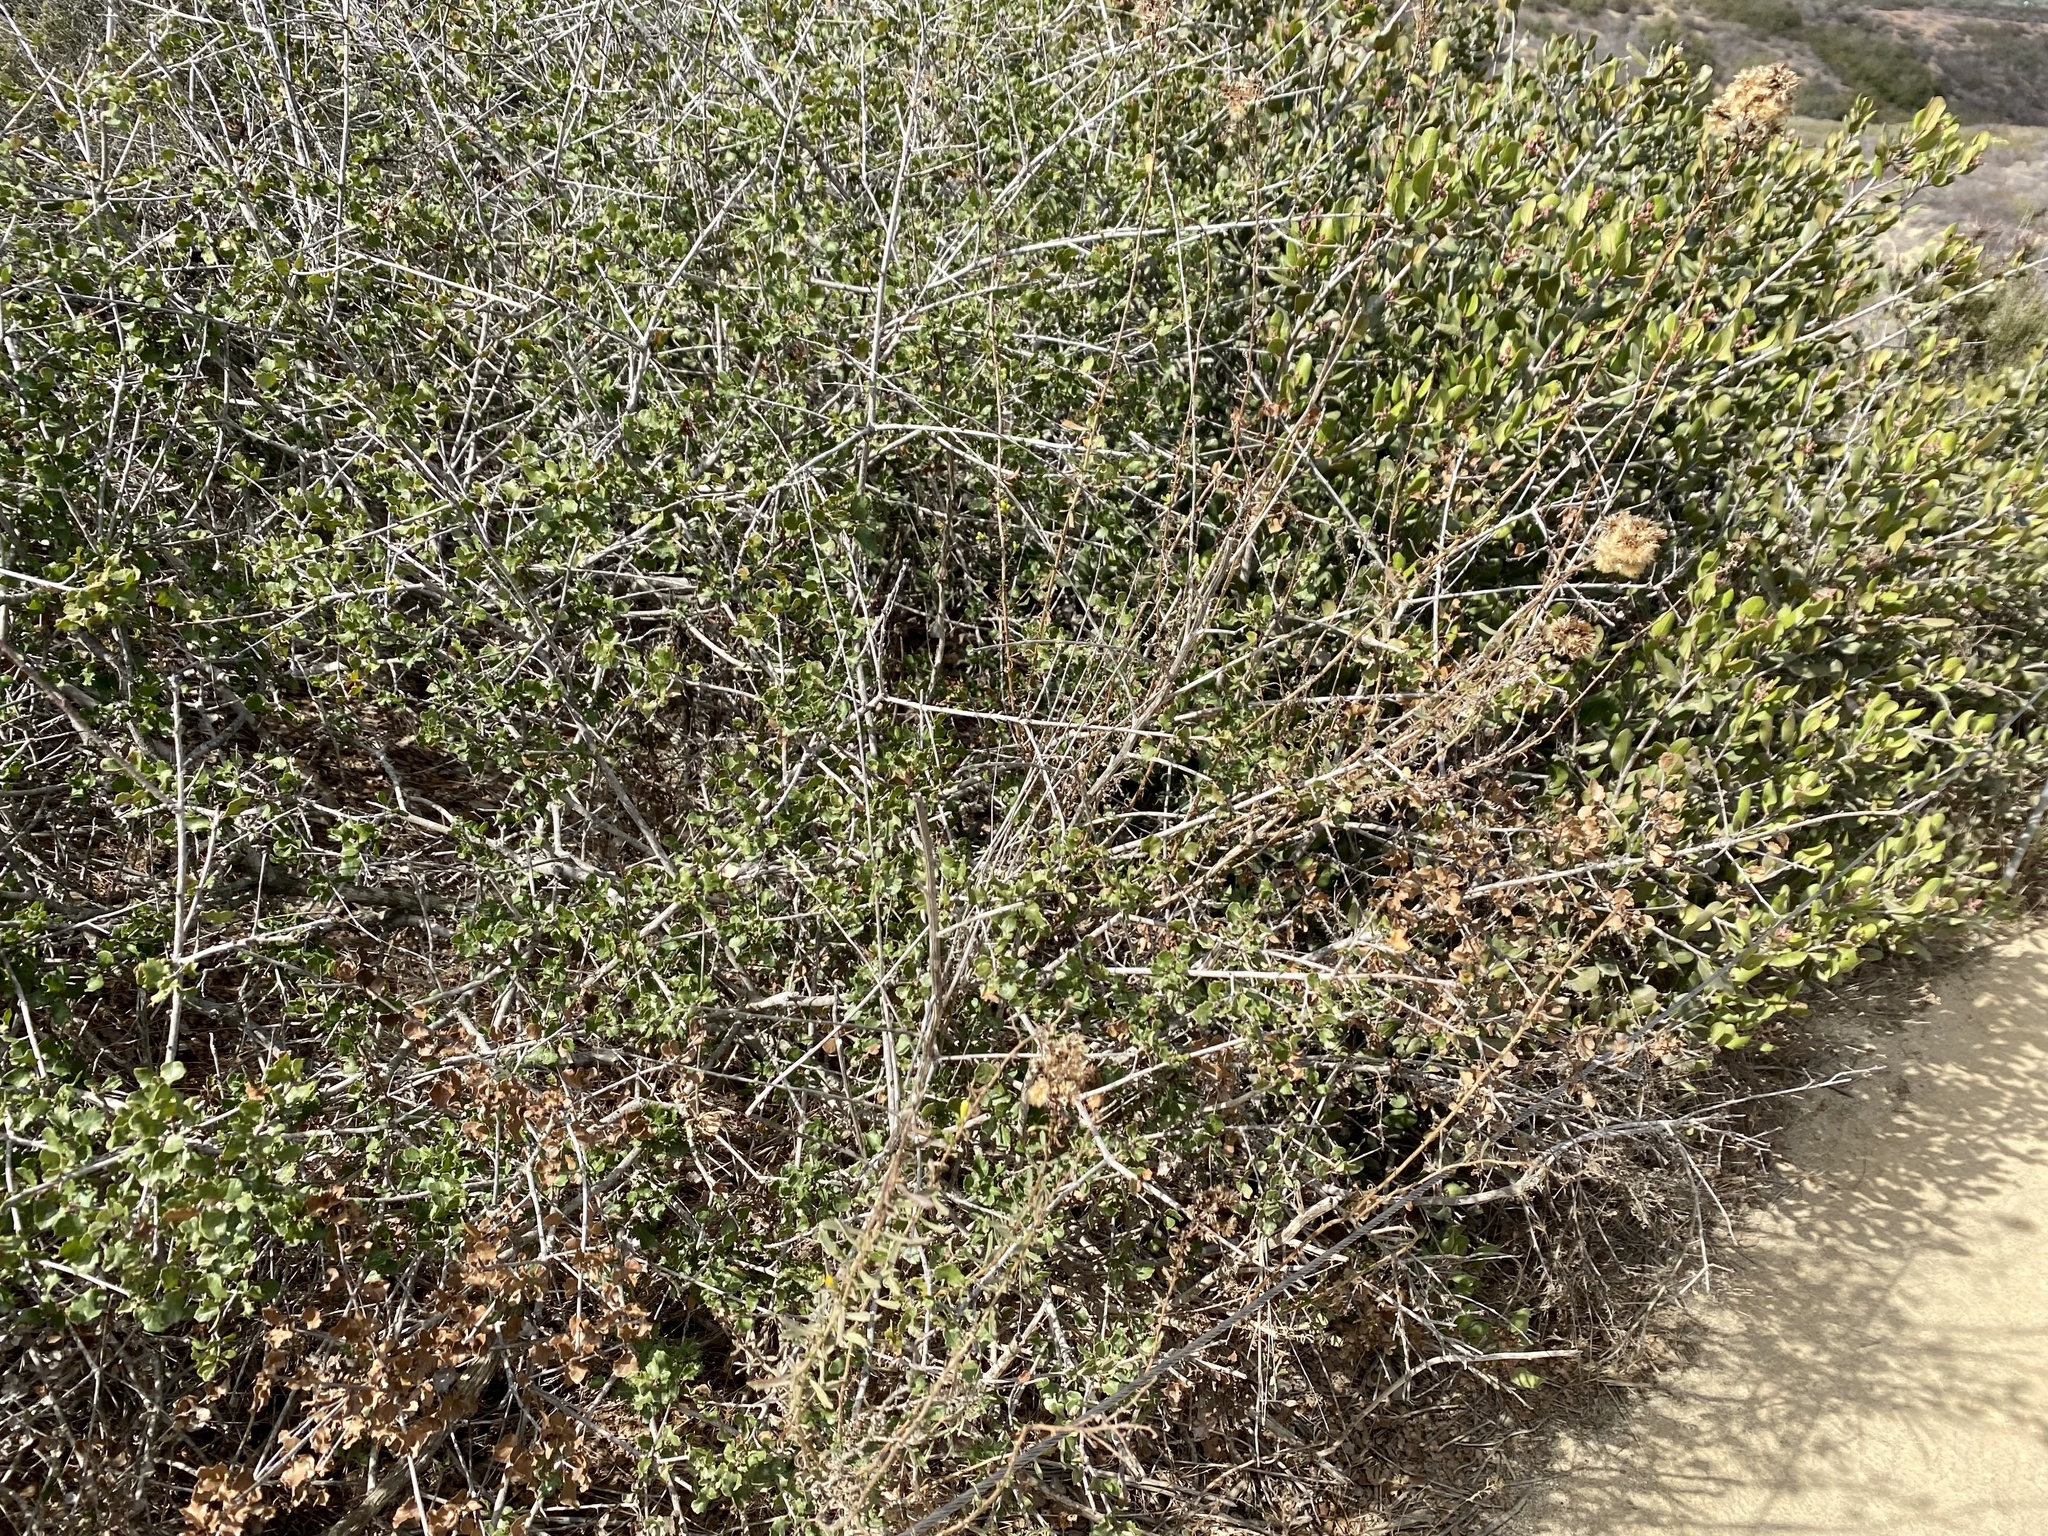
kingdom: Plantae
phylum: Tracheophyta
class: Magnoliopsida
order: Fagales
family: Fagaceae
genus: Quercus
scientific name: Quercus dumosa
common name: Coastal sage scrub oak
